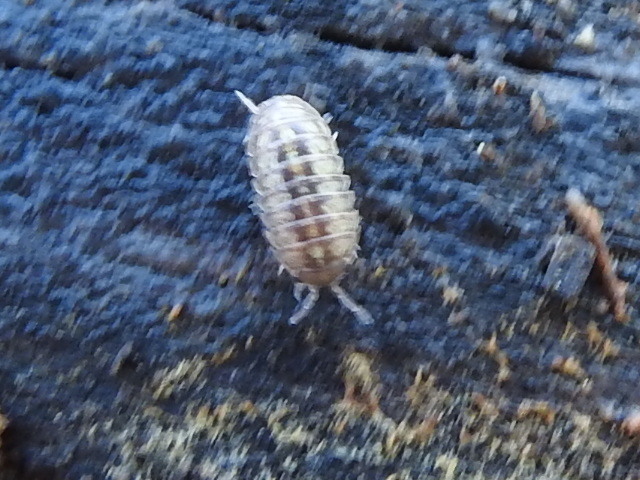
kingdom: Animalia
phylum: Arthropoda
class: Malacostraca
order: Isopoda
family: Armadillidiidae
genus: Armadillidium
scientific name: Armadillidium vulgare
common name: Common pill woodlouse
